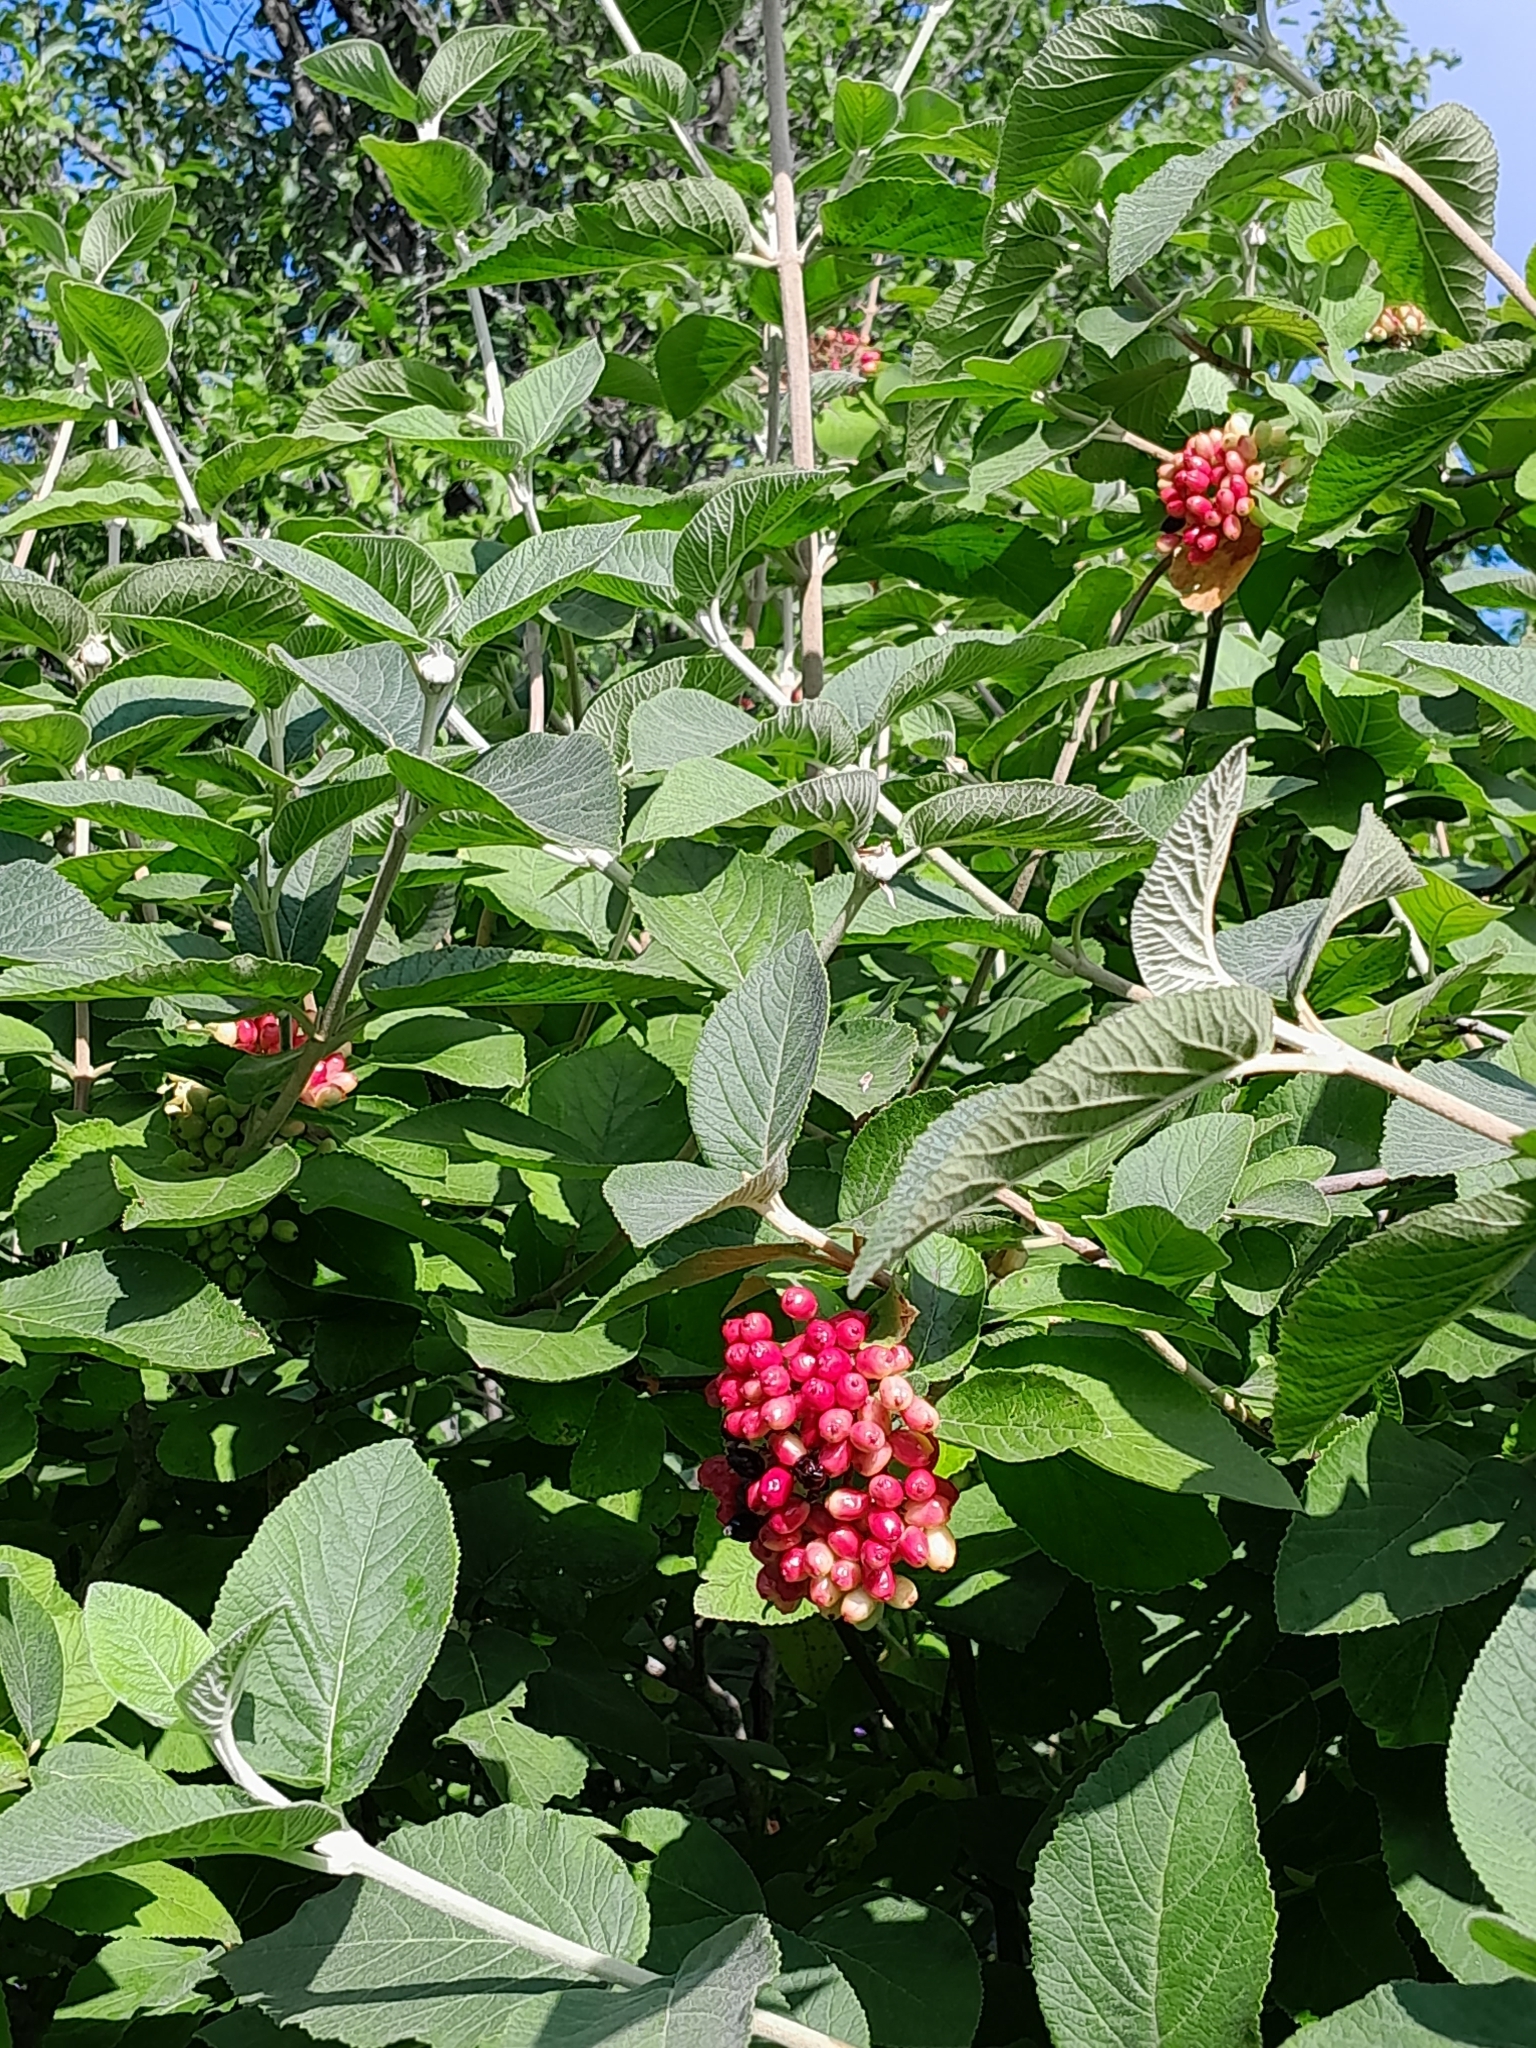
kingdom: Plantae
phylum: Tracheophyta
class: Magnoliopsida
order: Dipsacales
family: Viburnaceae
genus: Viburnum
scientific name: Viburnum lantana
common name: Wayfaring tree
